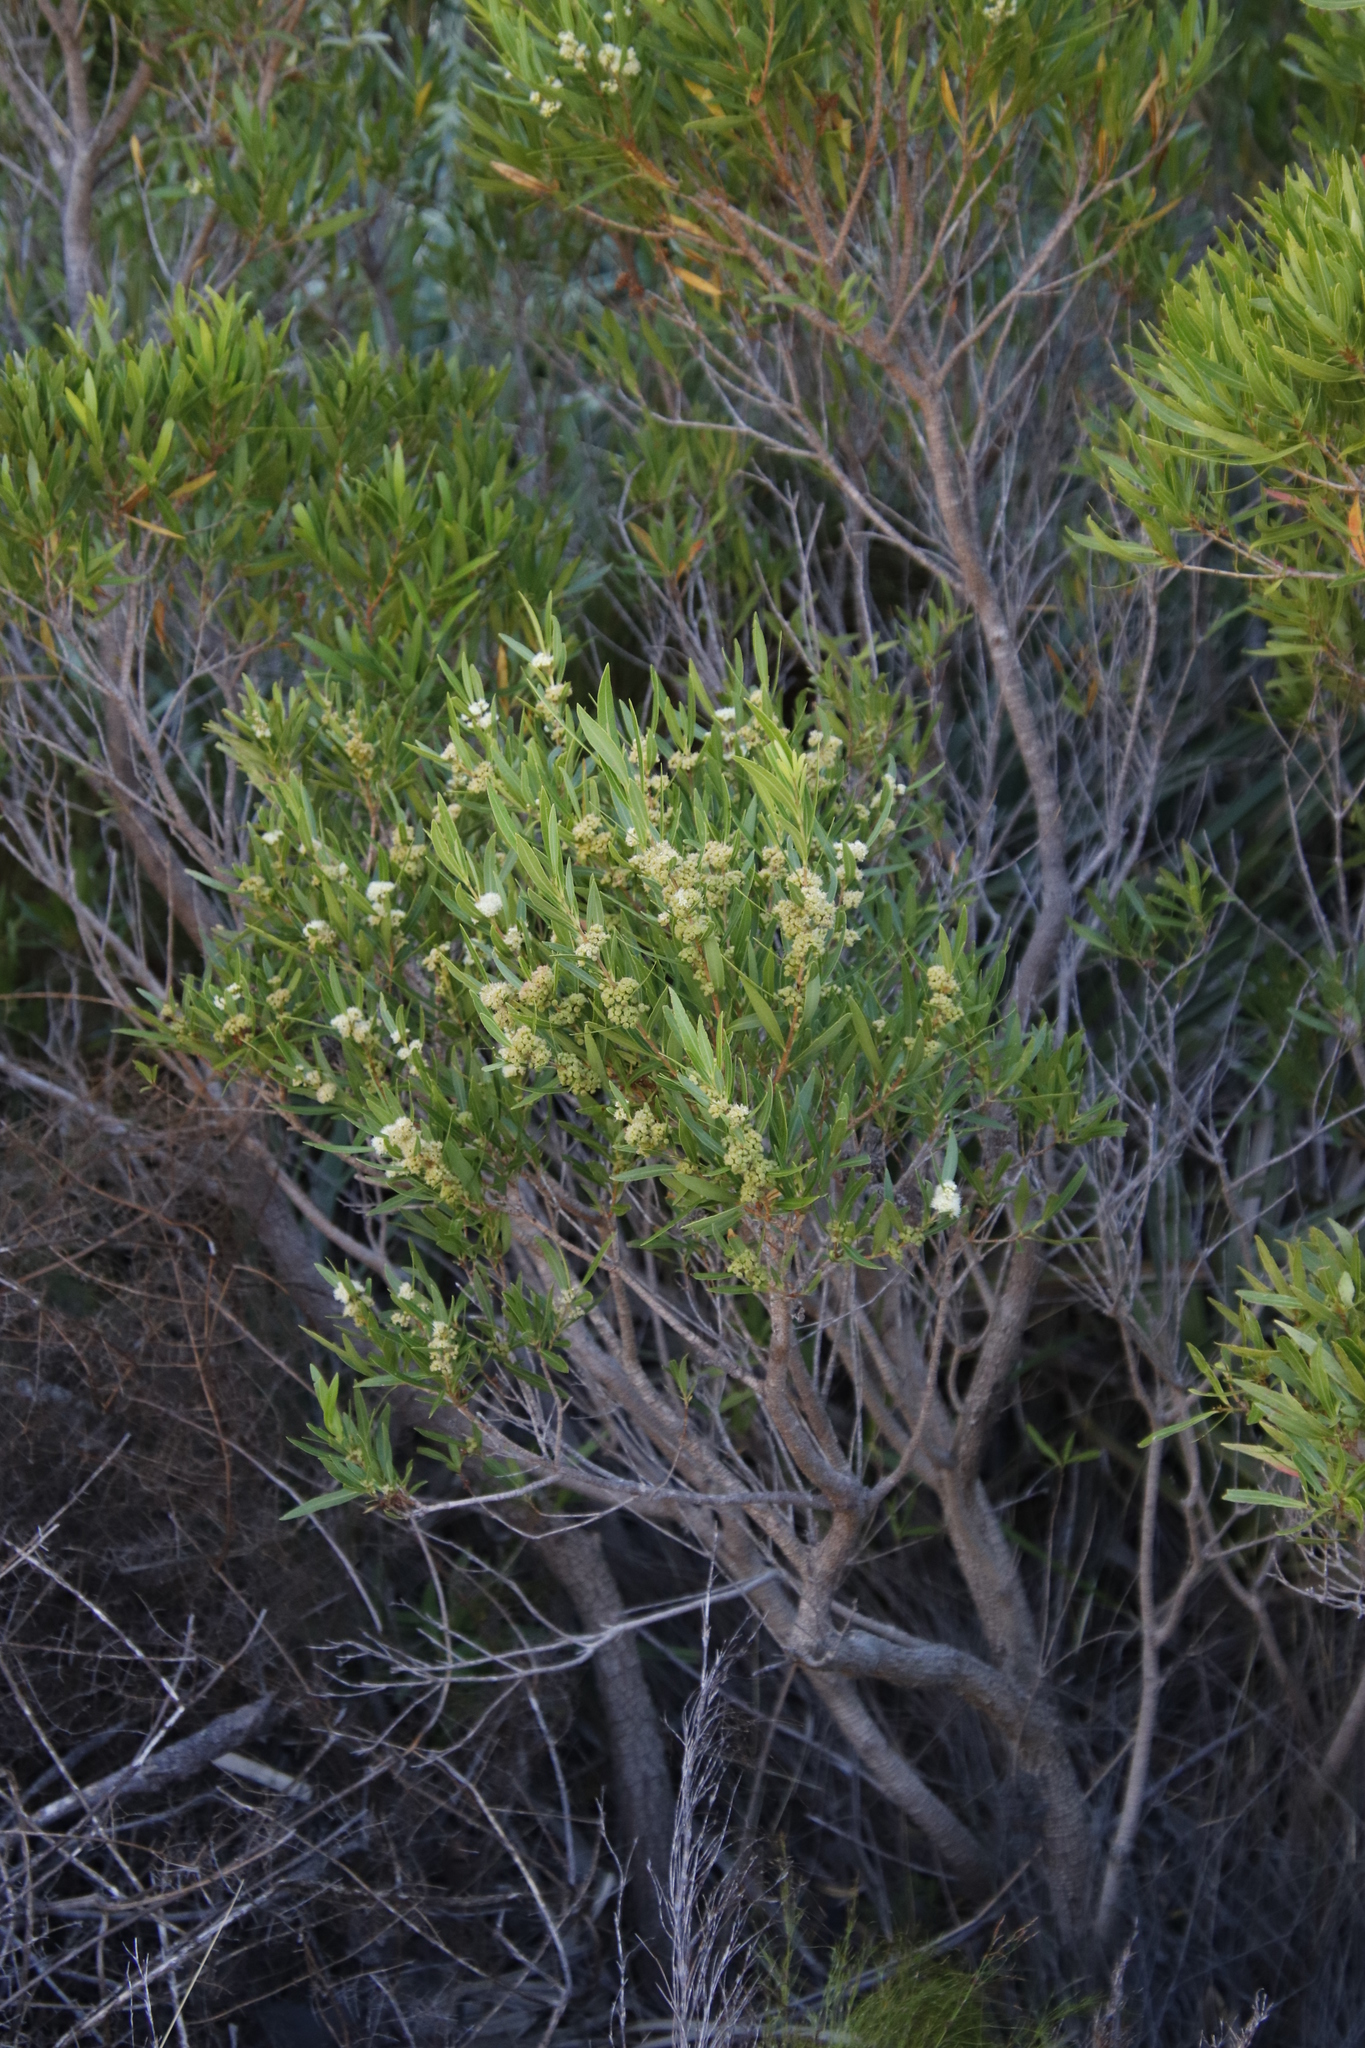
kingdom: Plantae
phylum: Tracheophyta
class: Magnoliopsida
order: Myrtales
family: Myrtaceae
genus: Callistemon
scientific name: Callistemon lanceolatus
